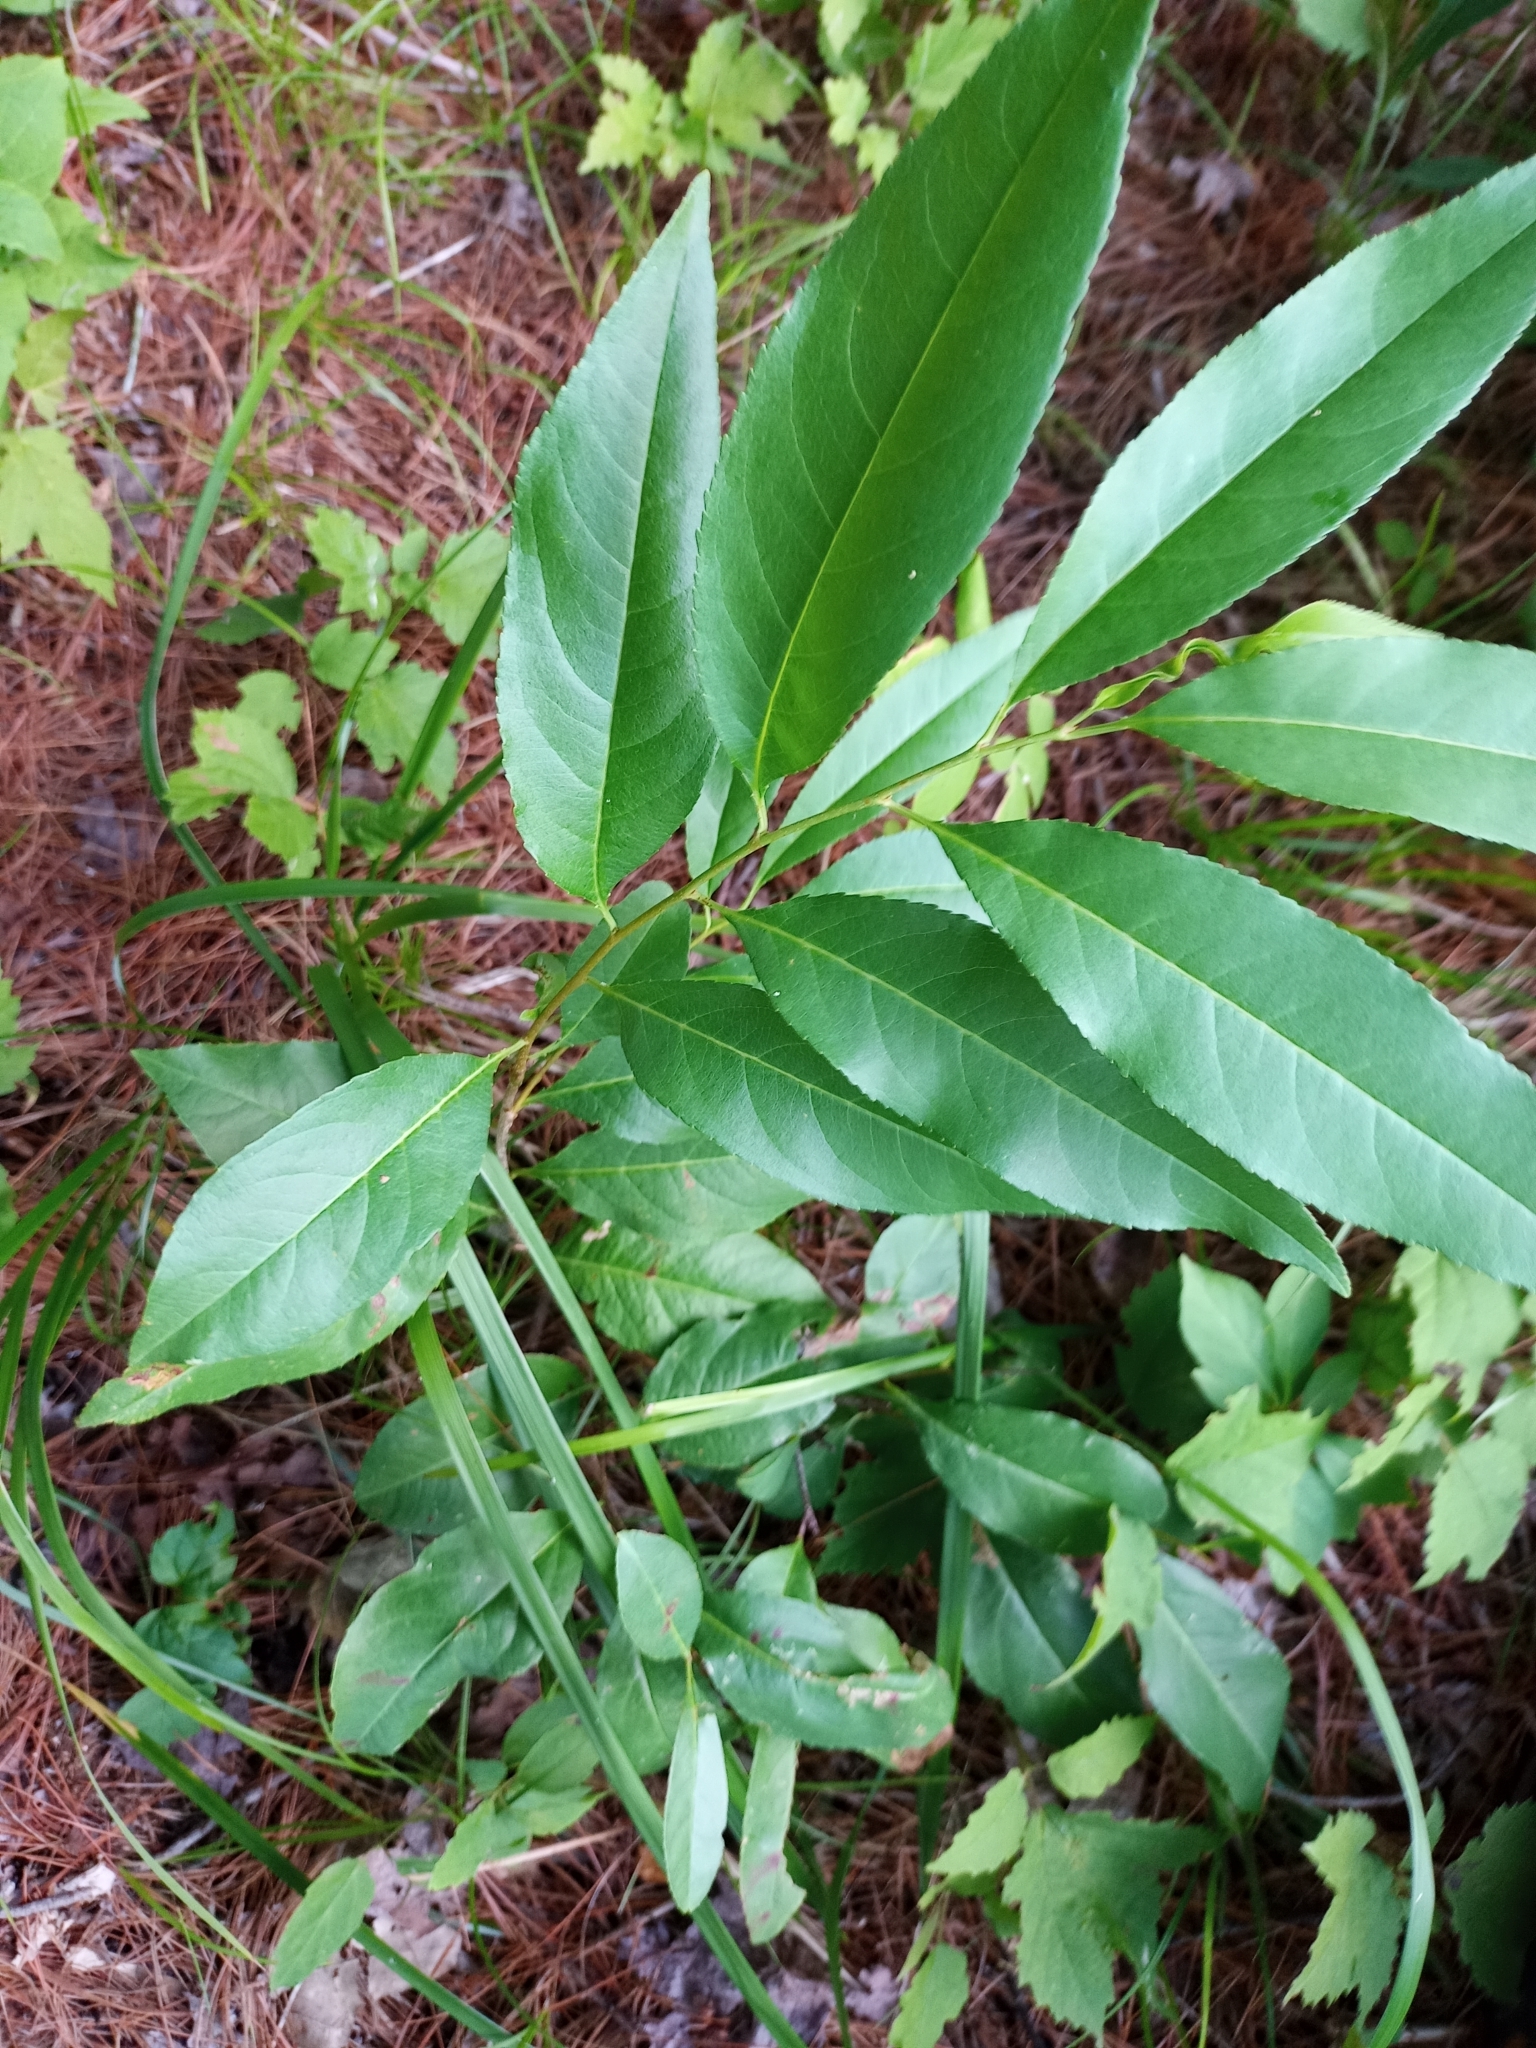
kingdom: Plantae
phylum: Tracheophyta
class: Magnoliopsida
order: Rosales
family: Rosaceae
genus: Prunus
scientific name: Prunus serotina
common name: Black cherry
